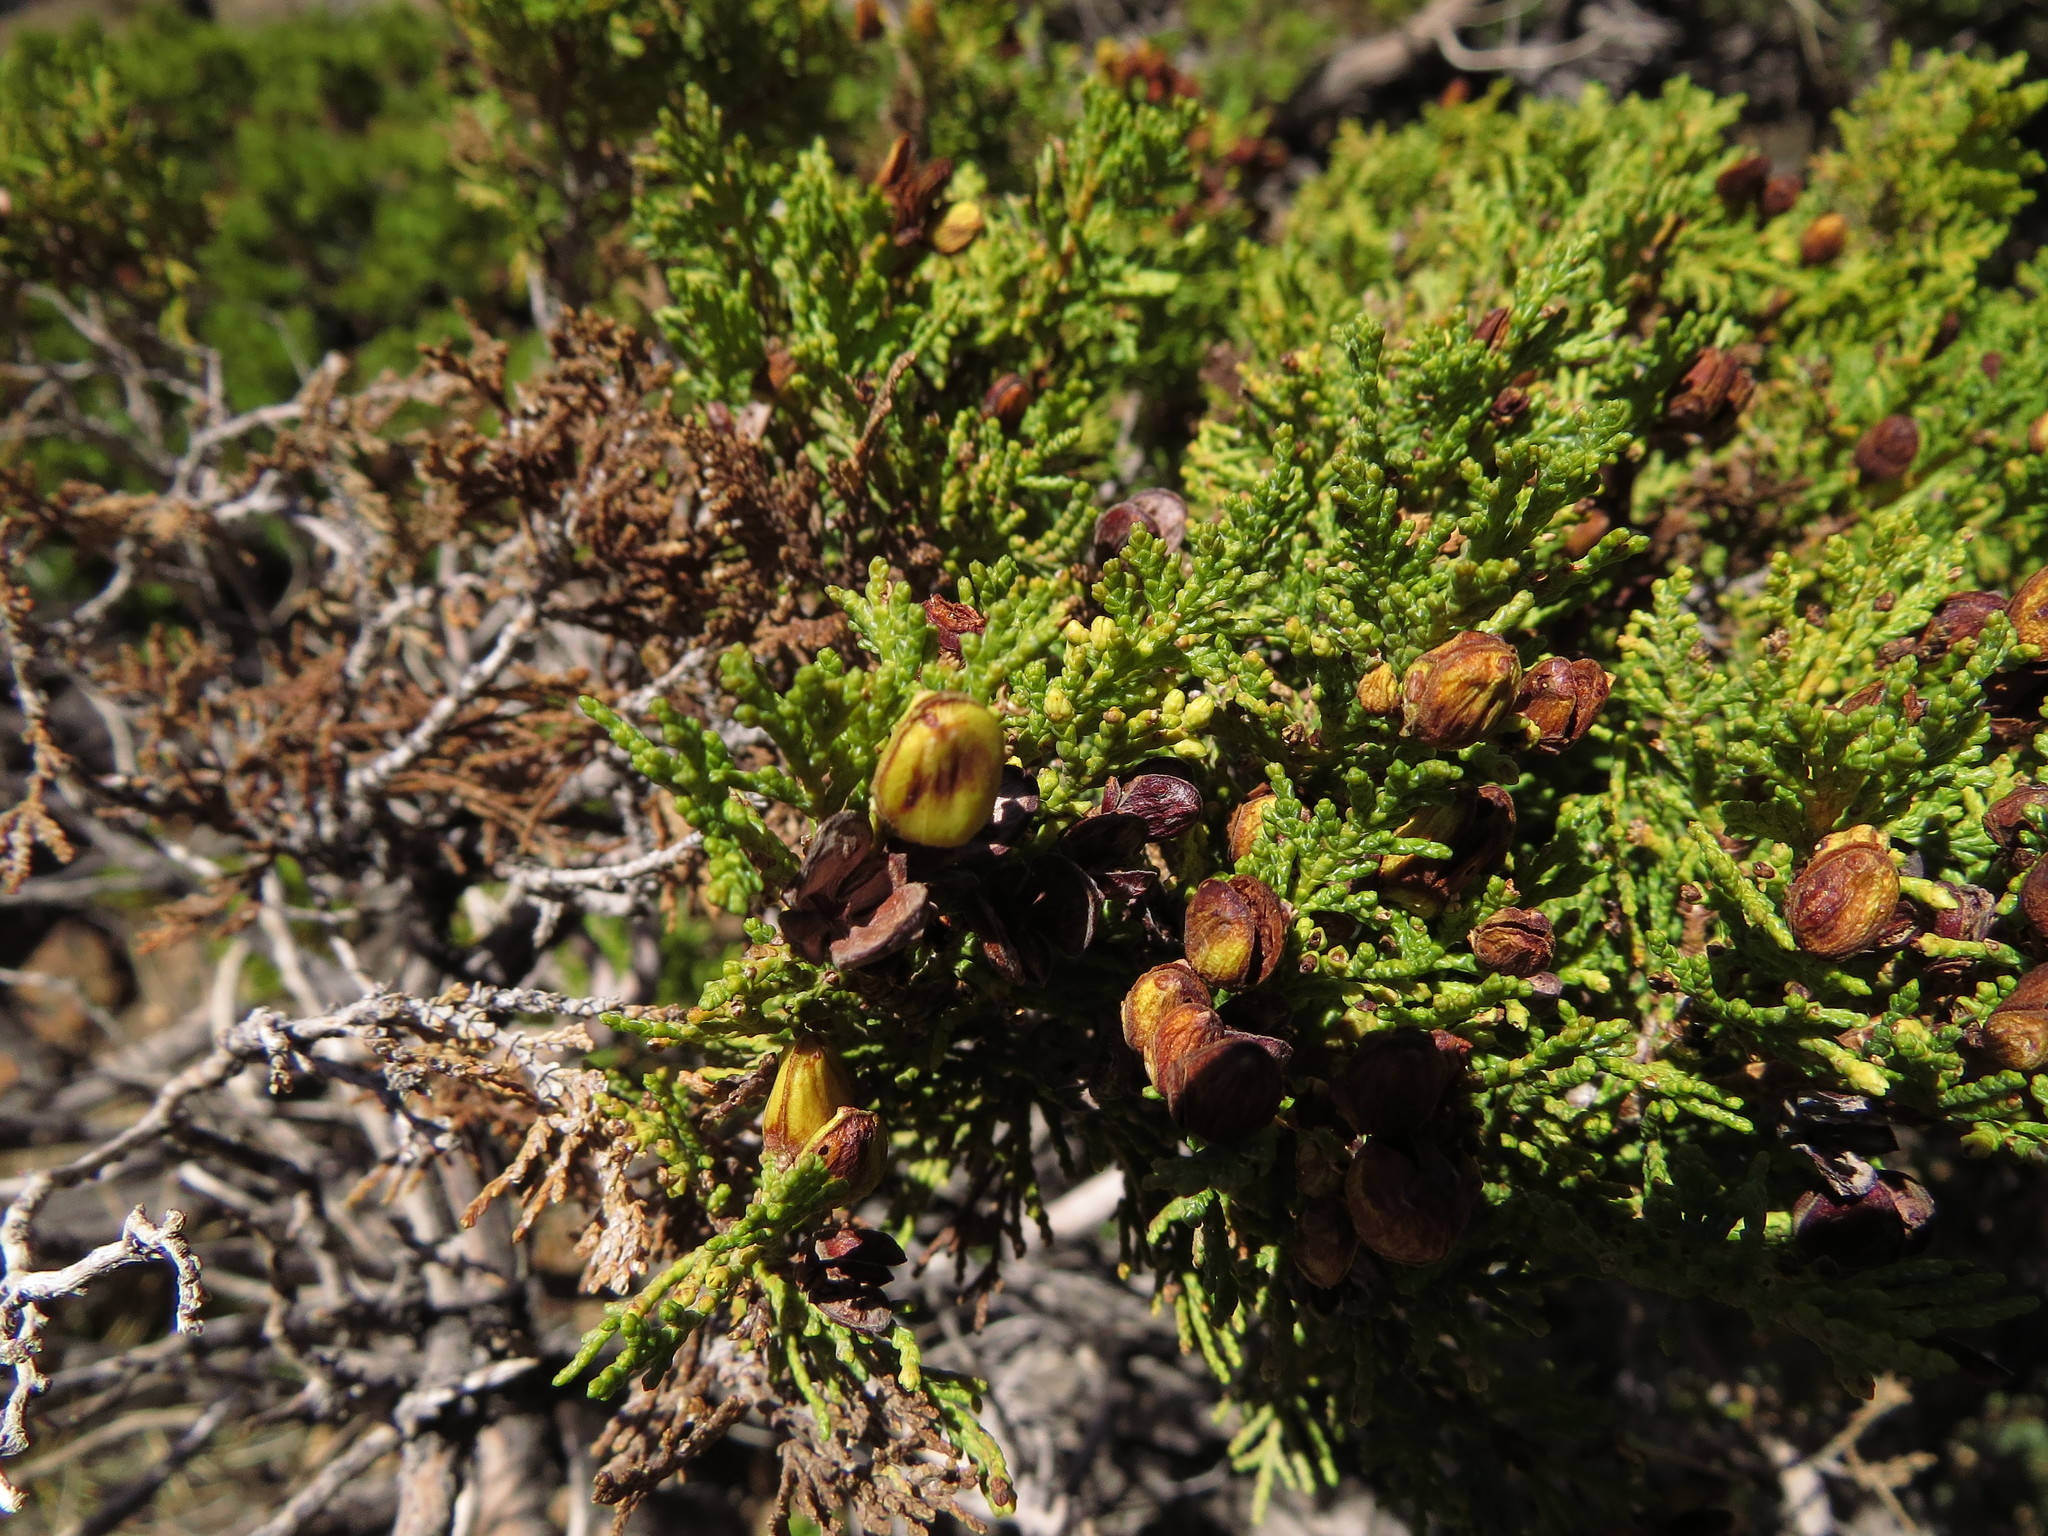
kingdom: Plantae
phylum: Tracheophyta
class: Pinopsida
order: Pinales
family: Cupressaceae
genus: Austrocedrus
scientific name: Austrocedrus chilensis
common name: Chilean incense-cedar
